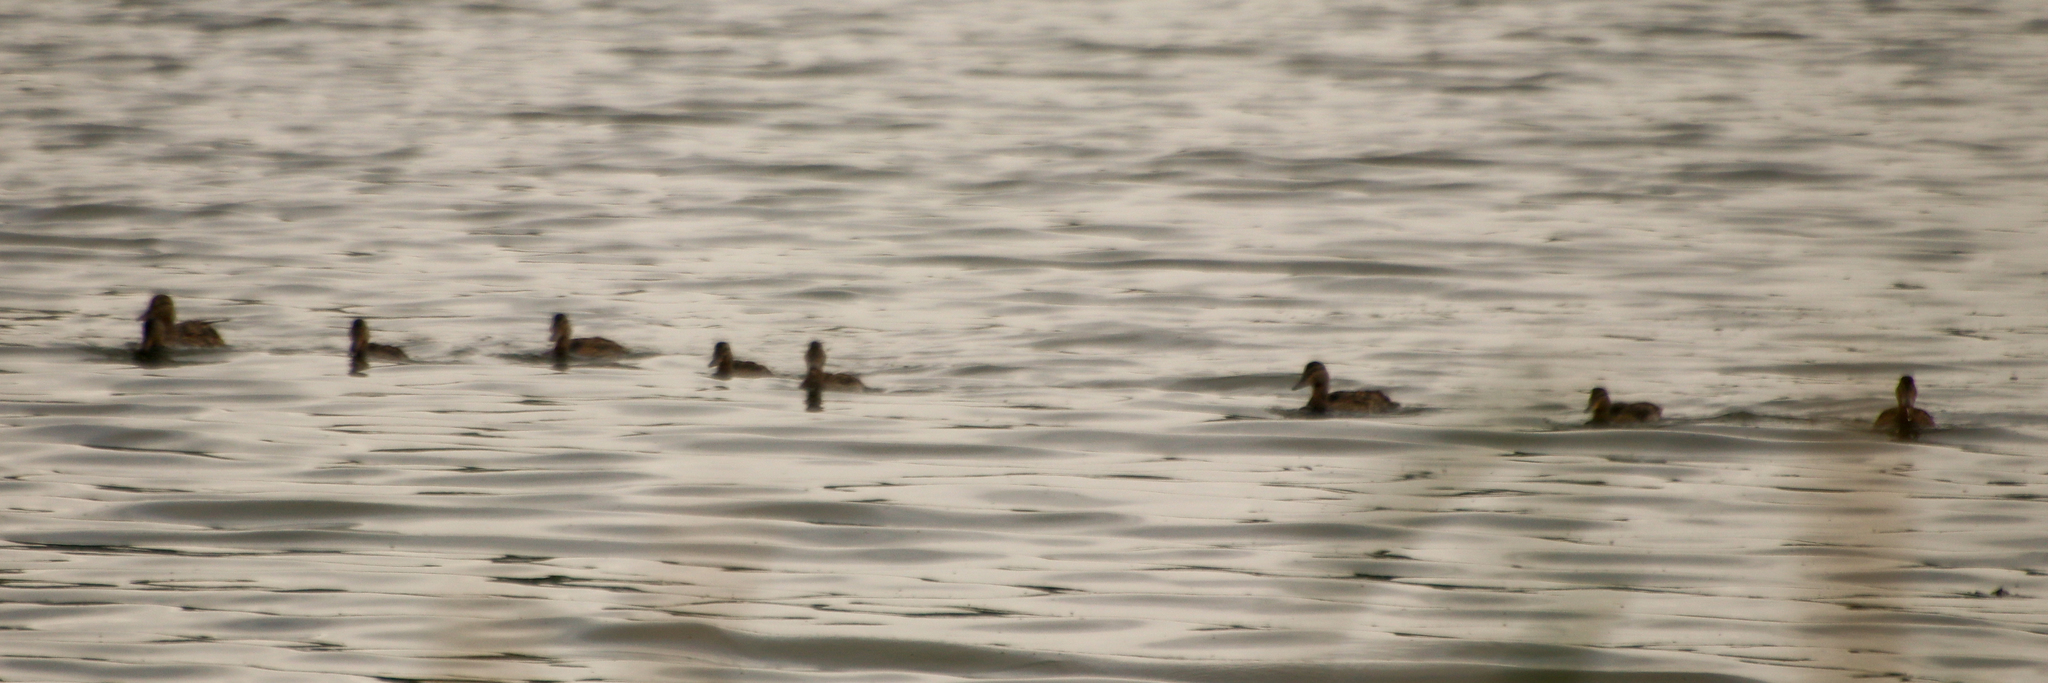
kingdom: Animalia
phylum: Chordata
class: Aves
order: Anseriformes
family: Anatidae
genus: Anas
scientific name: Anas platyrhynchos
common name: Mallard
